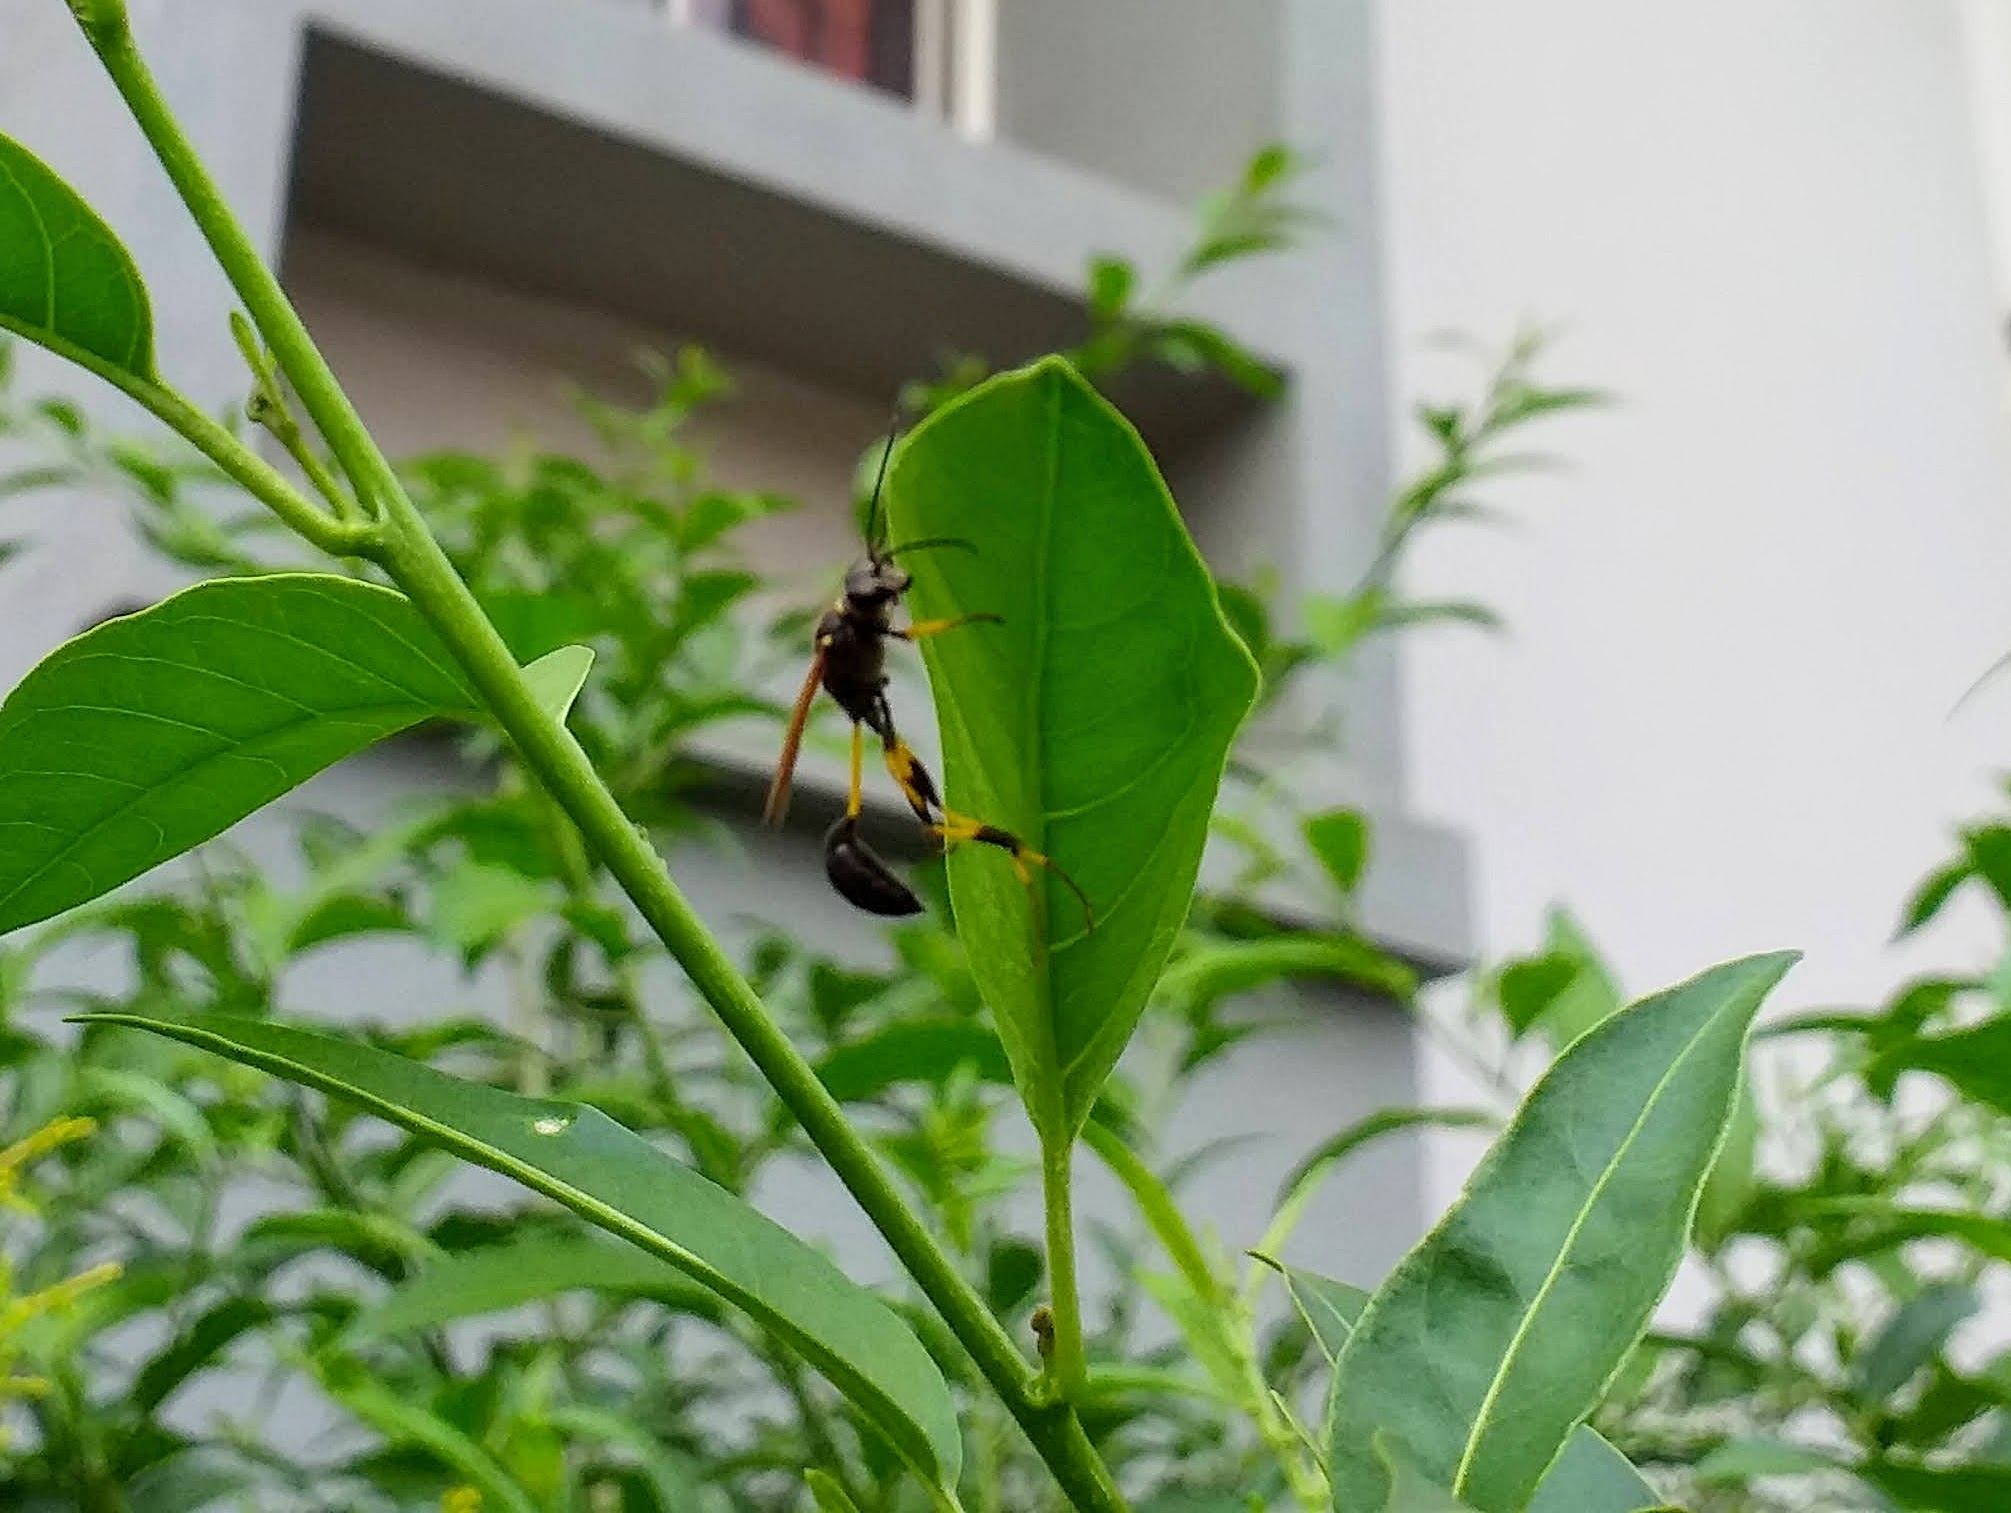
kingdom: Animalia
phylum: Arthropoda
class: Insecta
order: Hymenoptera
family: Sphecidae
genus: Sceliphron
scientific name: Sceliphron madraspatanum
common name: Mud dauber
